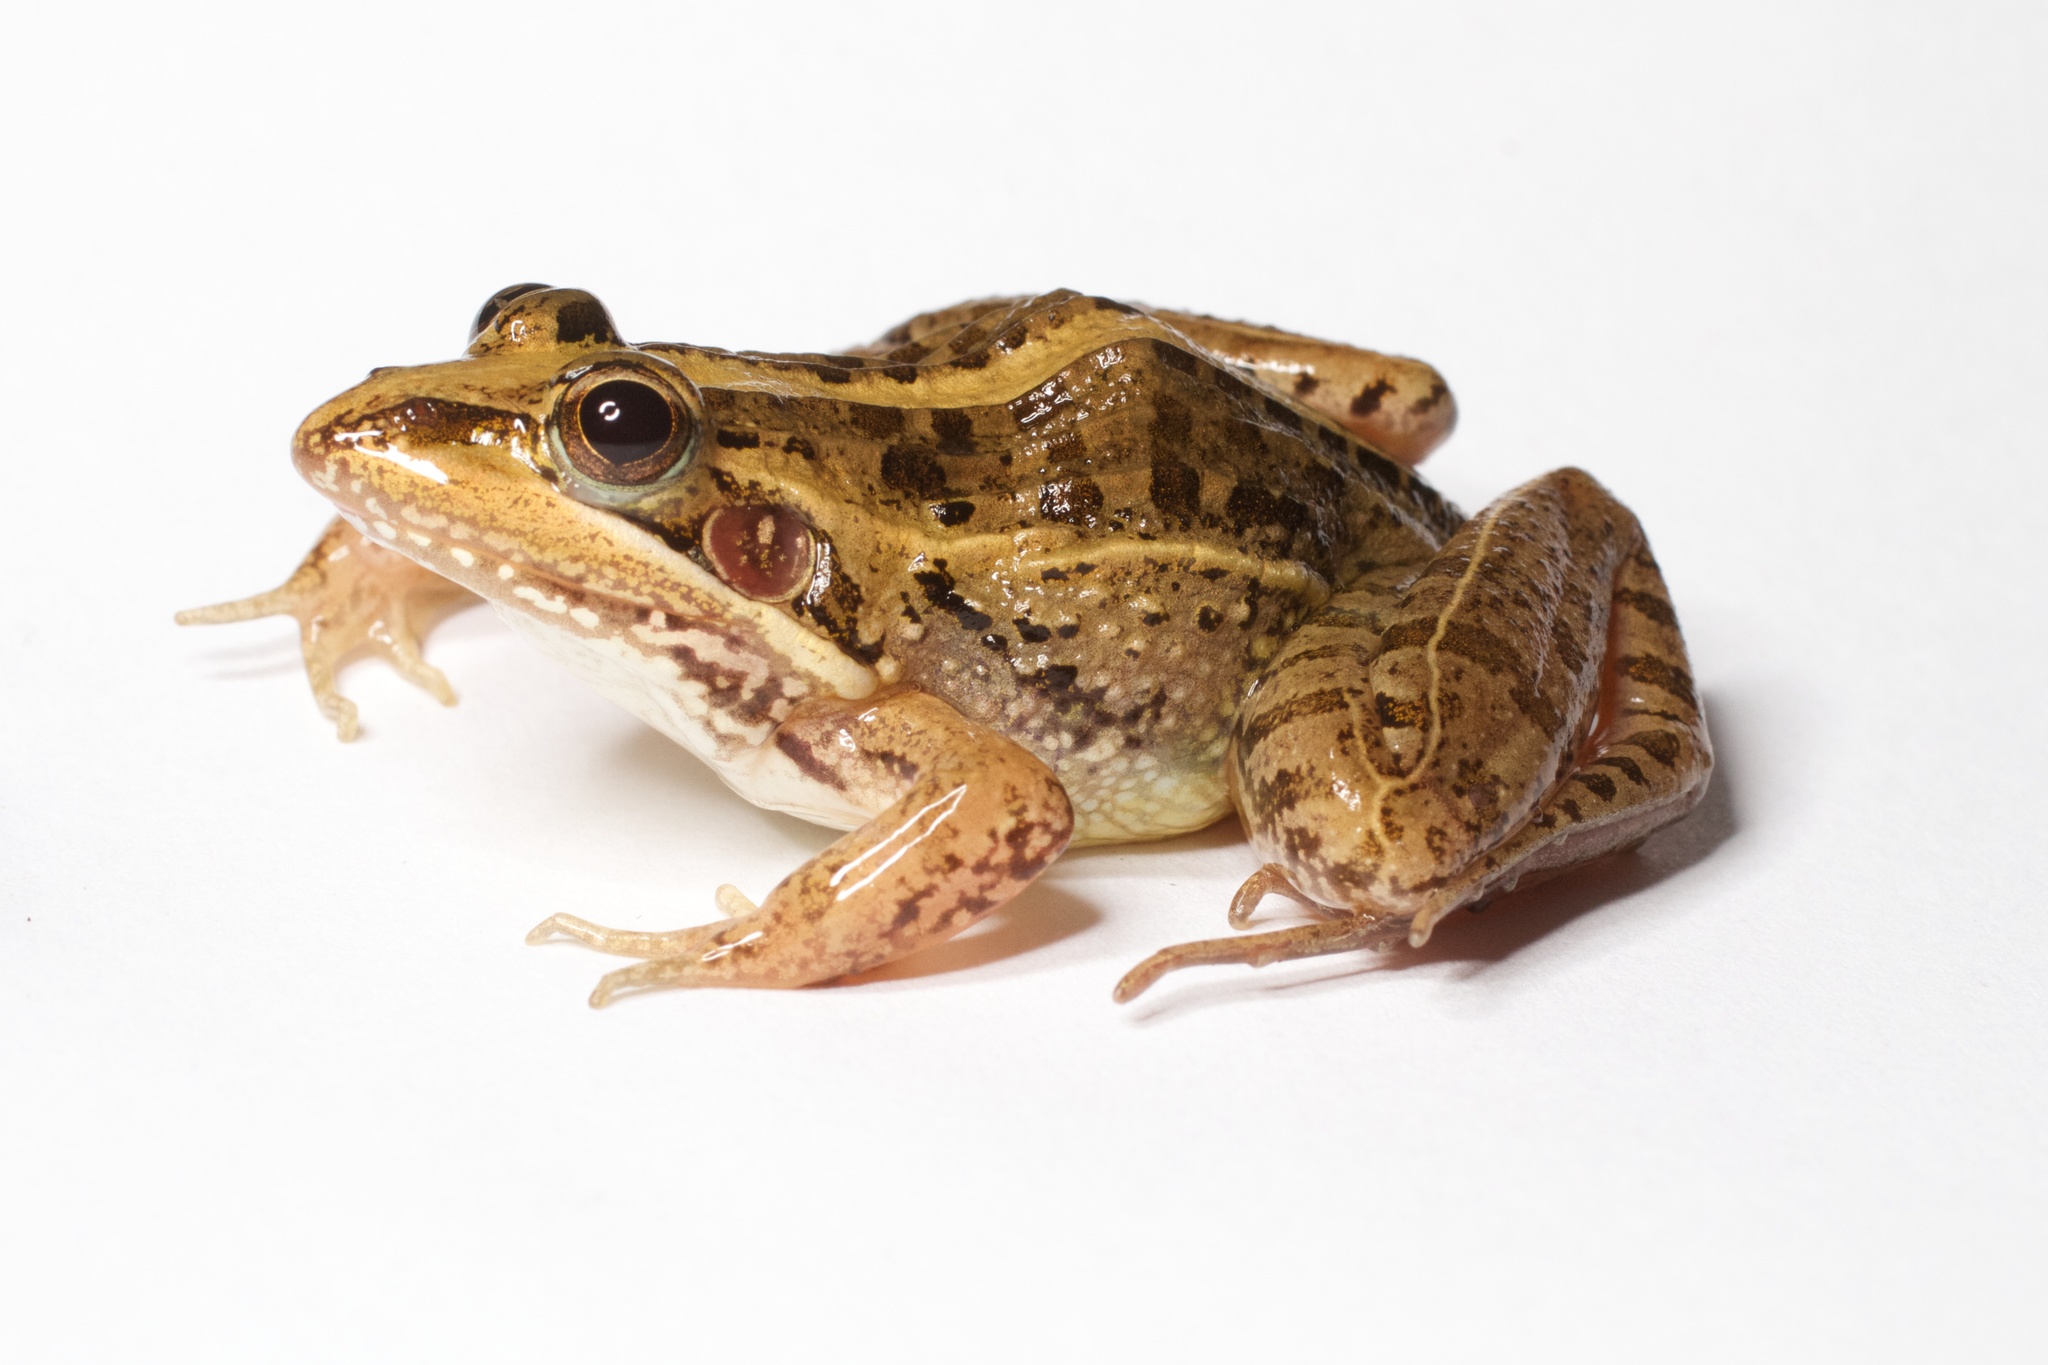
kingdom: Animalia
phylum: Chordata
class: Amphibia
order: Anura
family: Ptychadenidae
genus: Ptychadena
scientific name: Ptychadena mascareniensis
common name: Mascarene grass frog
